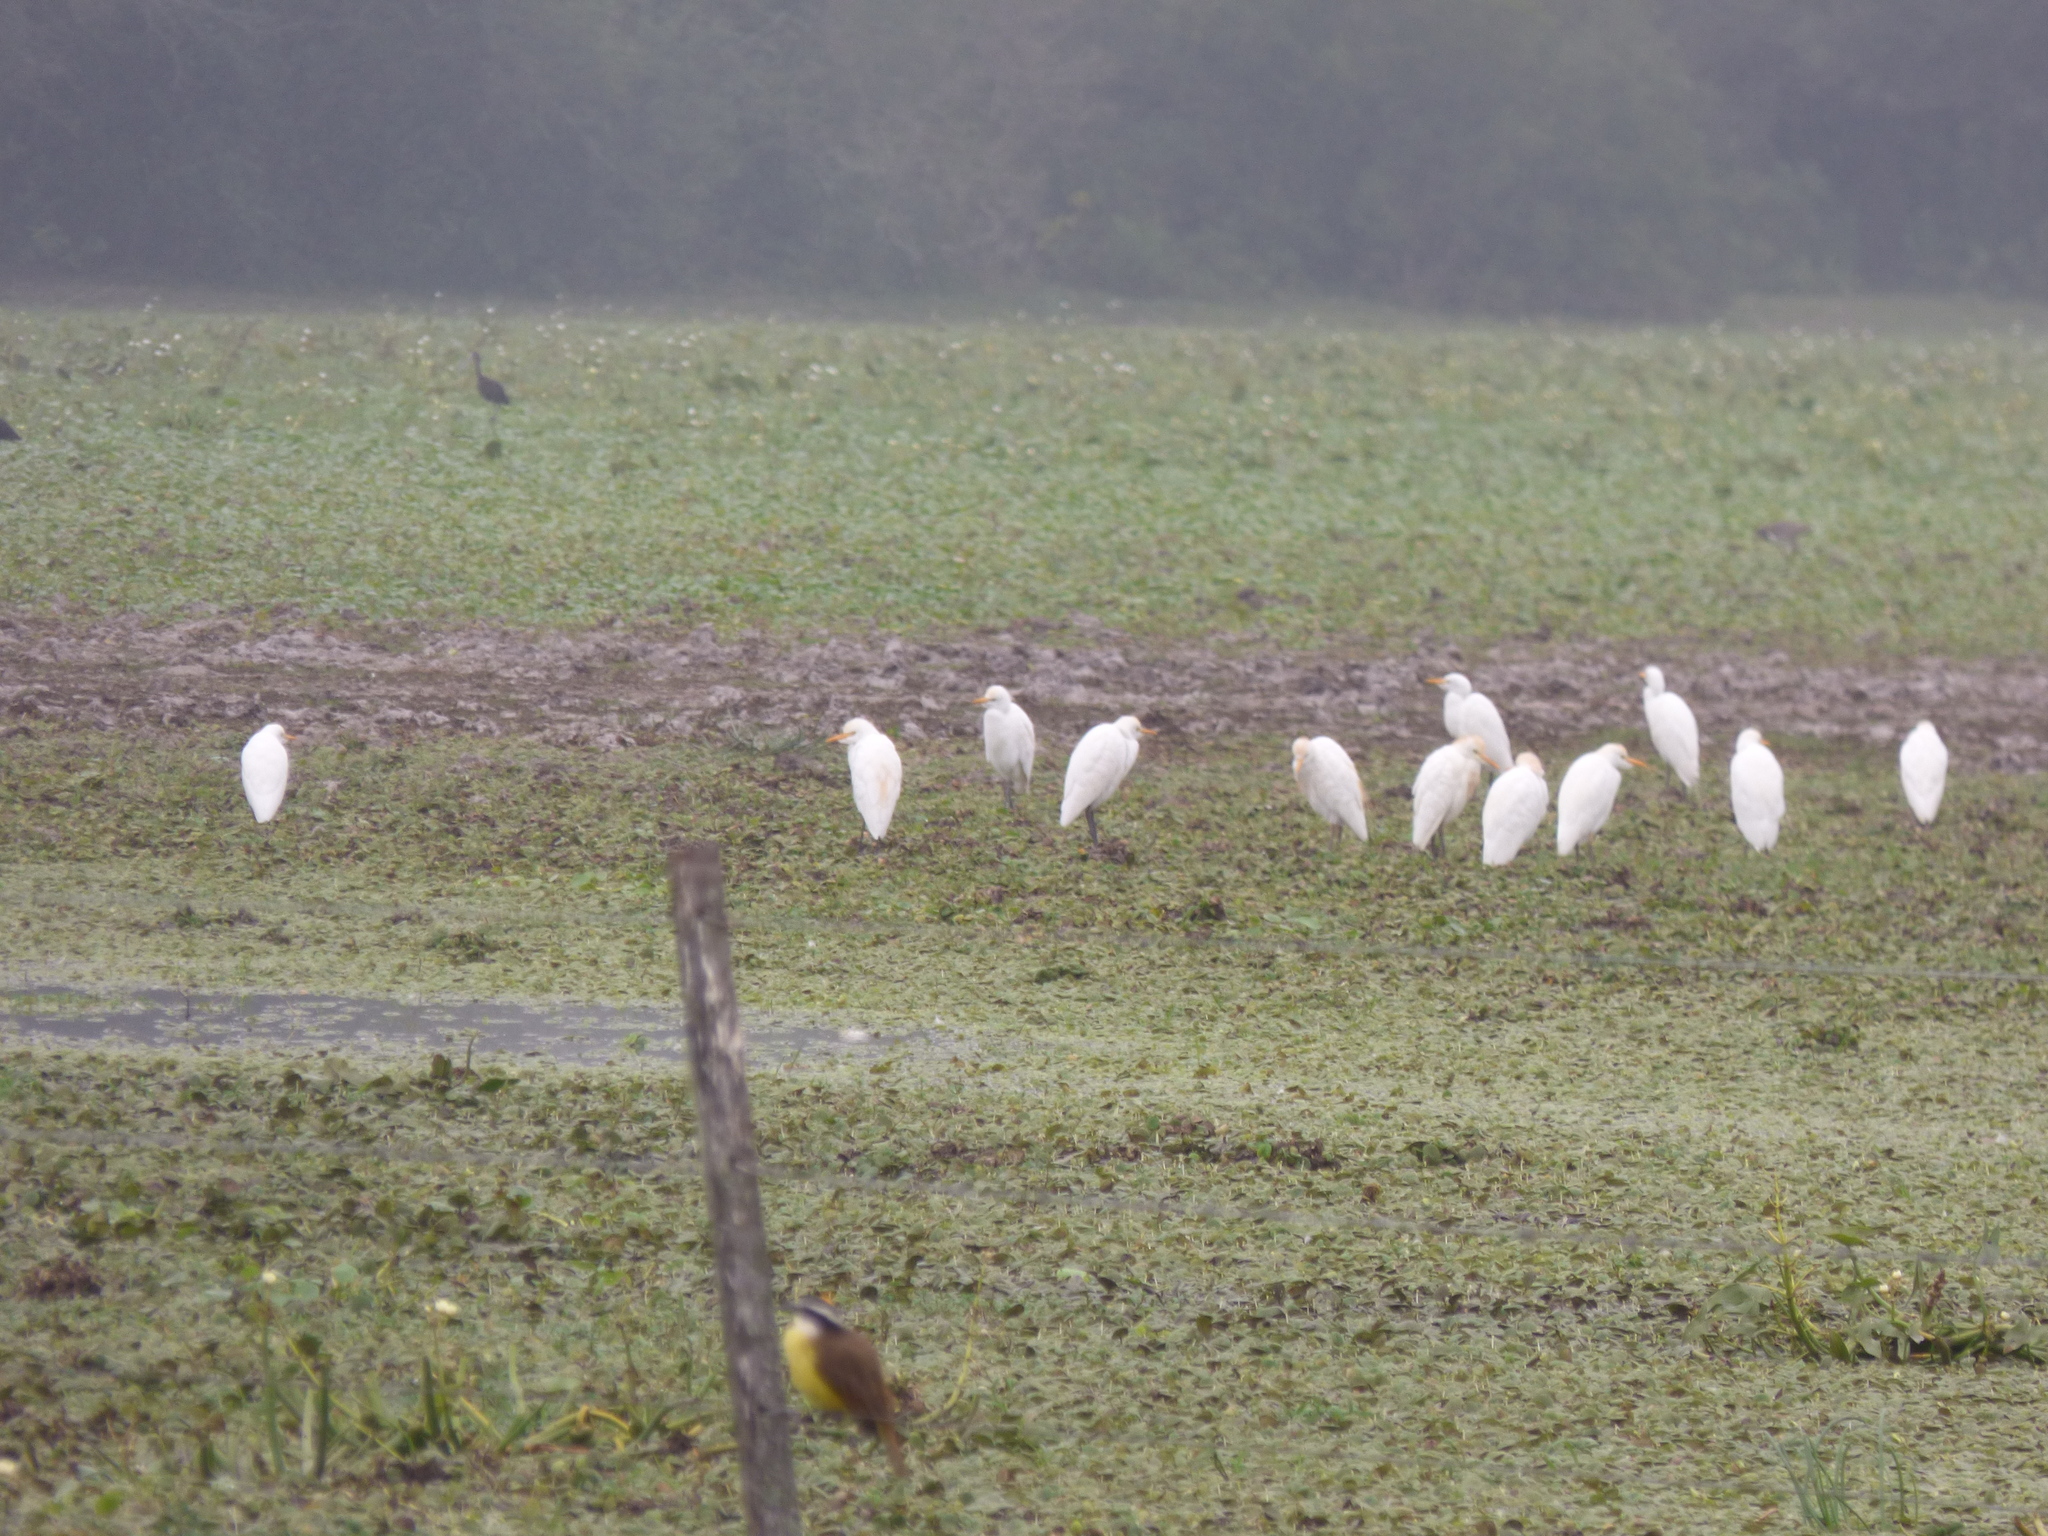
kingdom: Animalia
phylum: Chordata
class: Aves
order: Pelecaniformes
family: Ardeidae
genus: Bubulcus
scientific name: Bubulcus ibis
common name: Cattle egret
